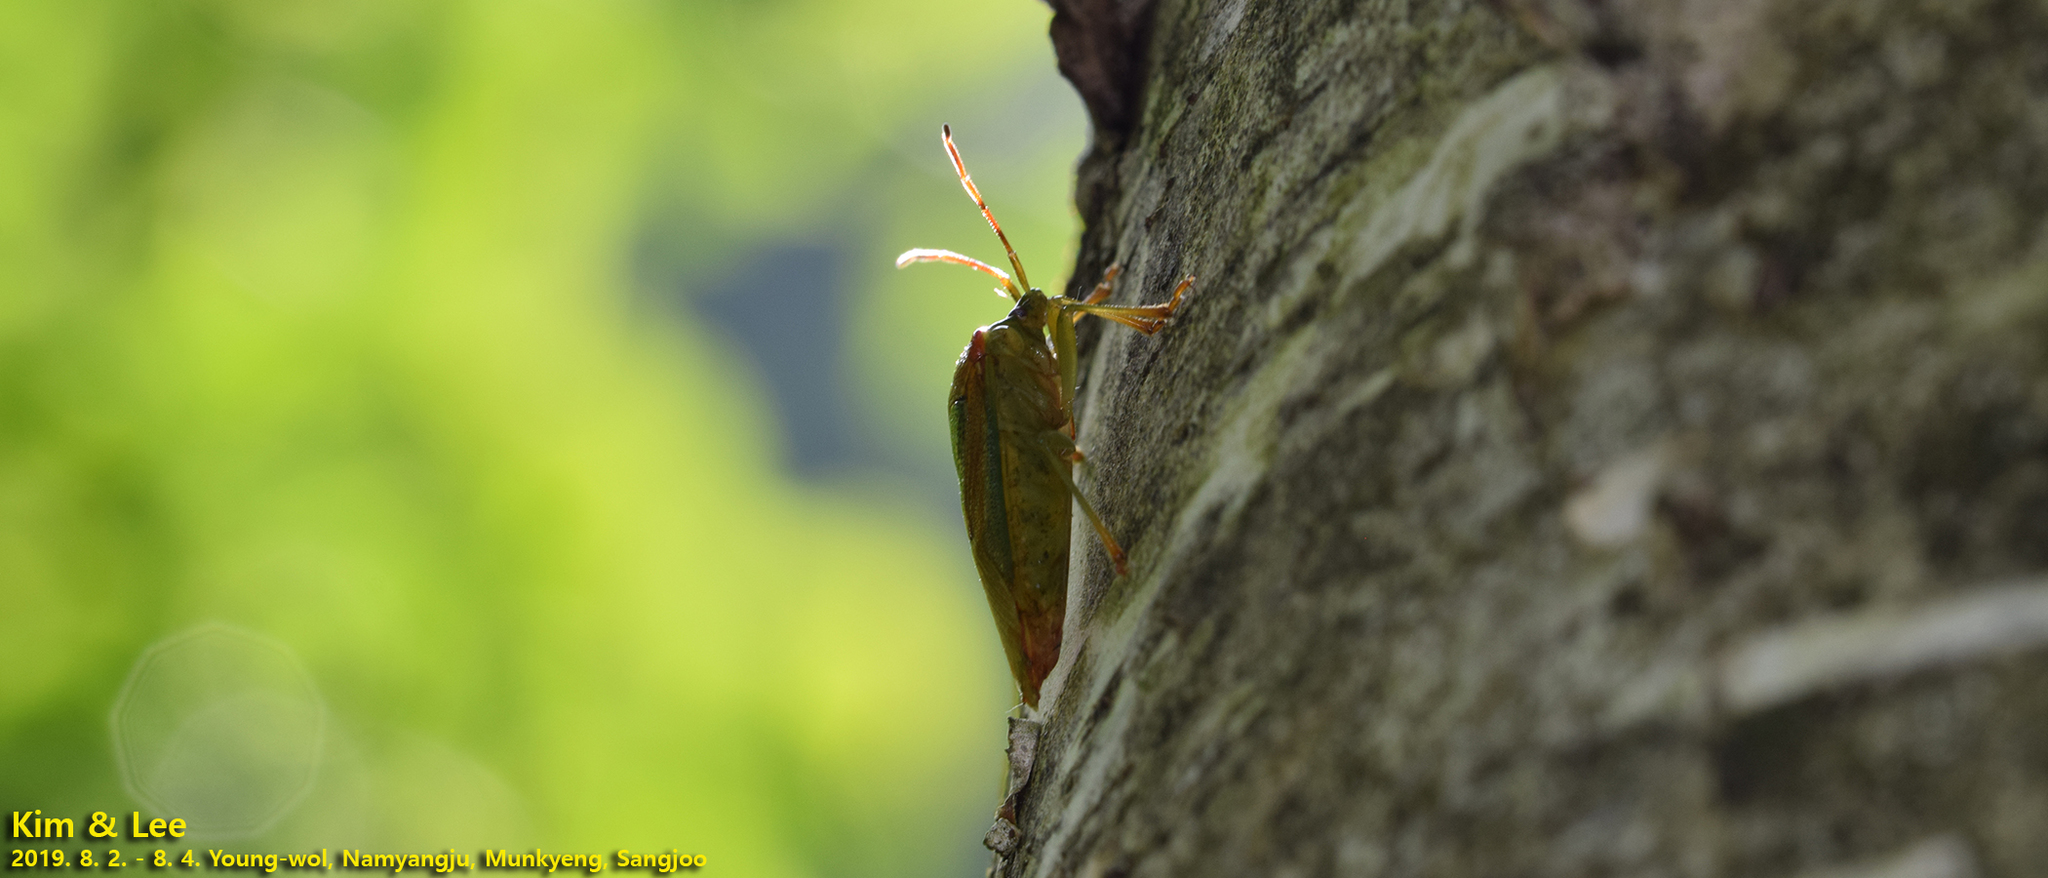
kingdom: Animalia
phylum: Arthropoda
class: Insecta
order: Hemiptera
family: Acanthosomatidae
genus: Acanthosoma
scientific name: Acanthosoma spinicolle
